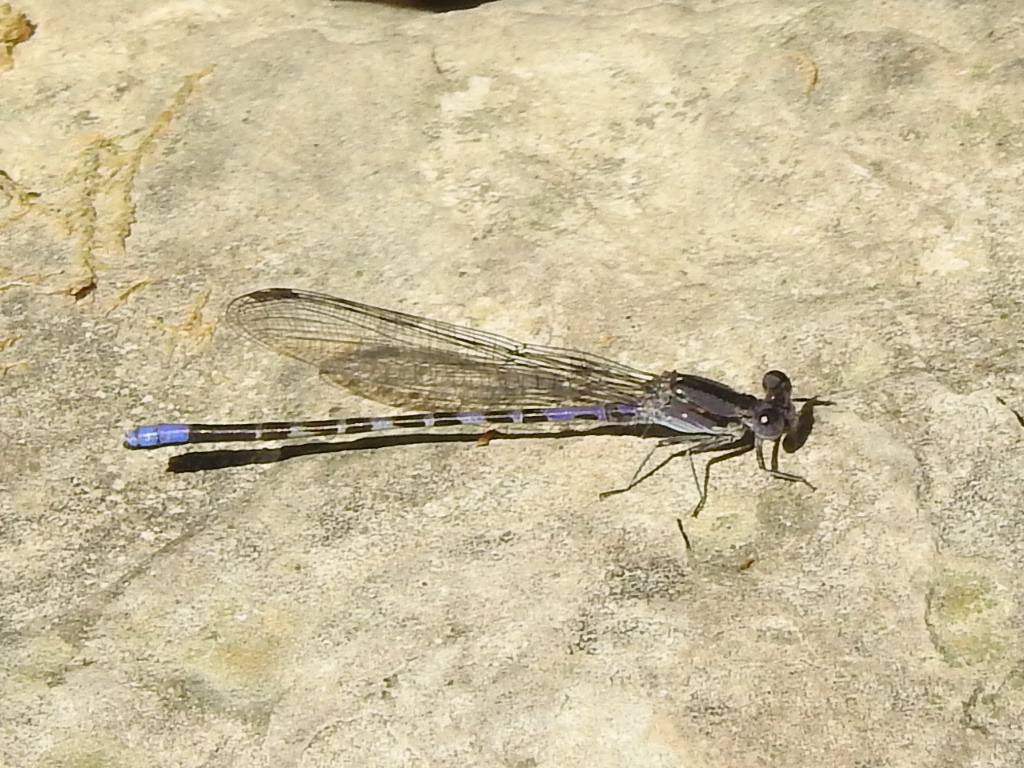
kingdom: Animalia
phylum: Arthropoda
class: Insecta
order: Odonata
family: Coenagrionidae
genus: Argia
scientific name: Argia immunda
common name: Kiowa dancer
